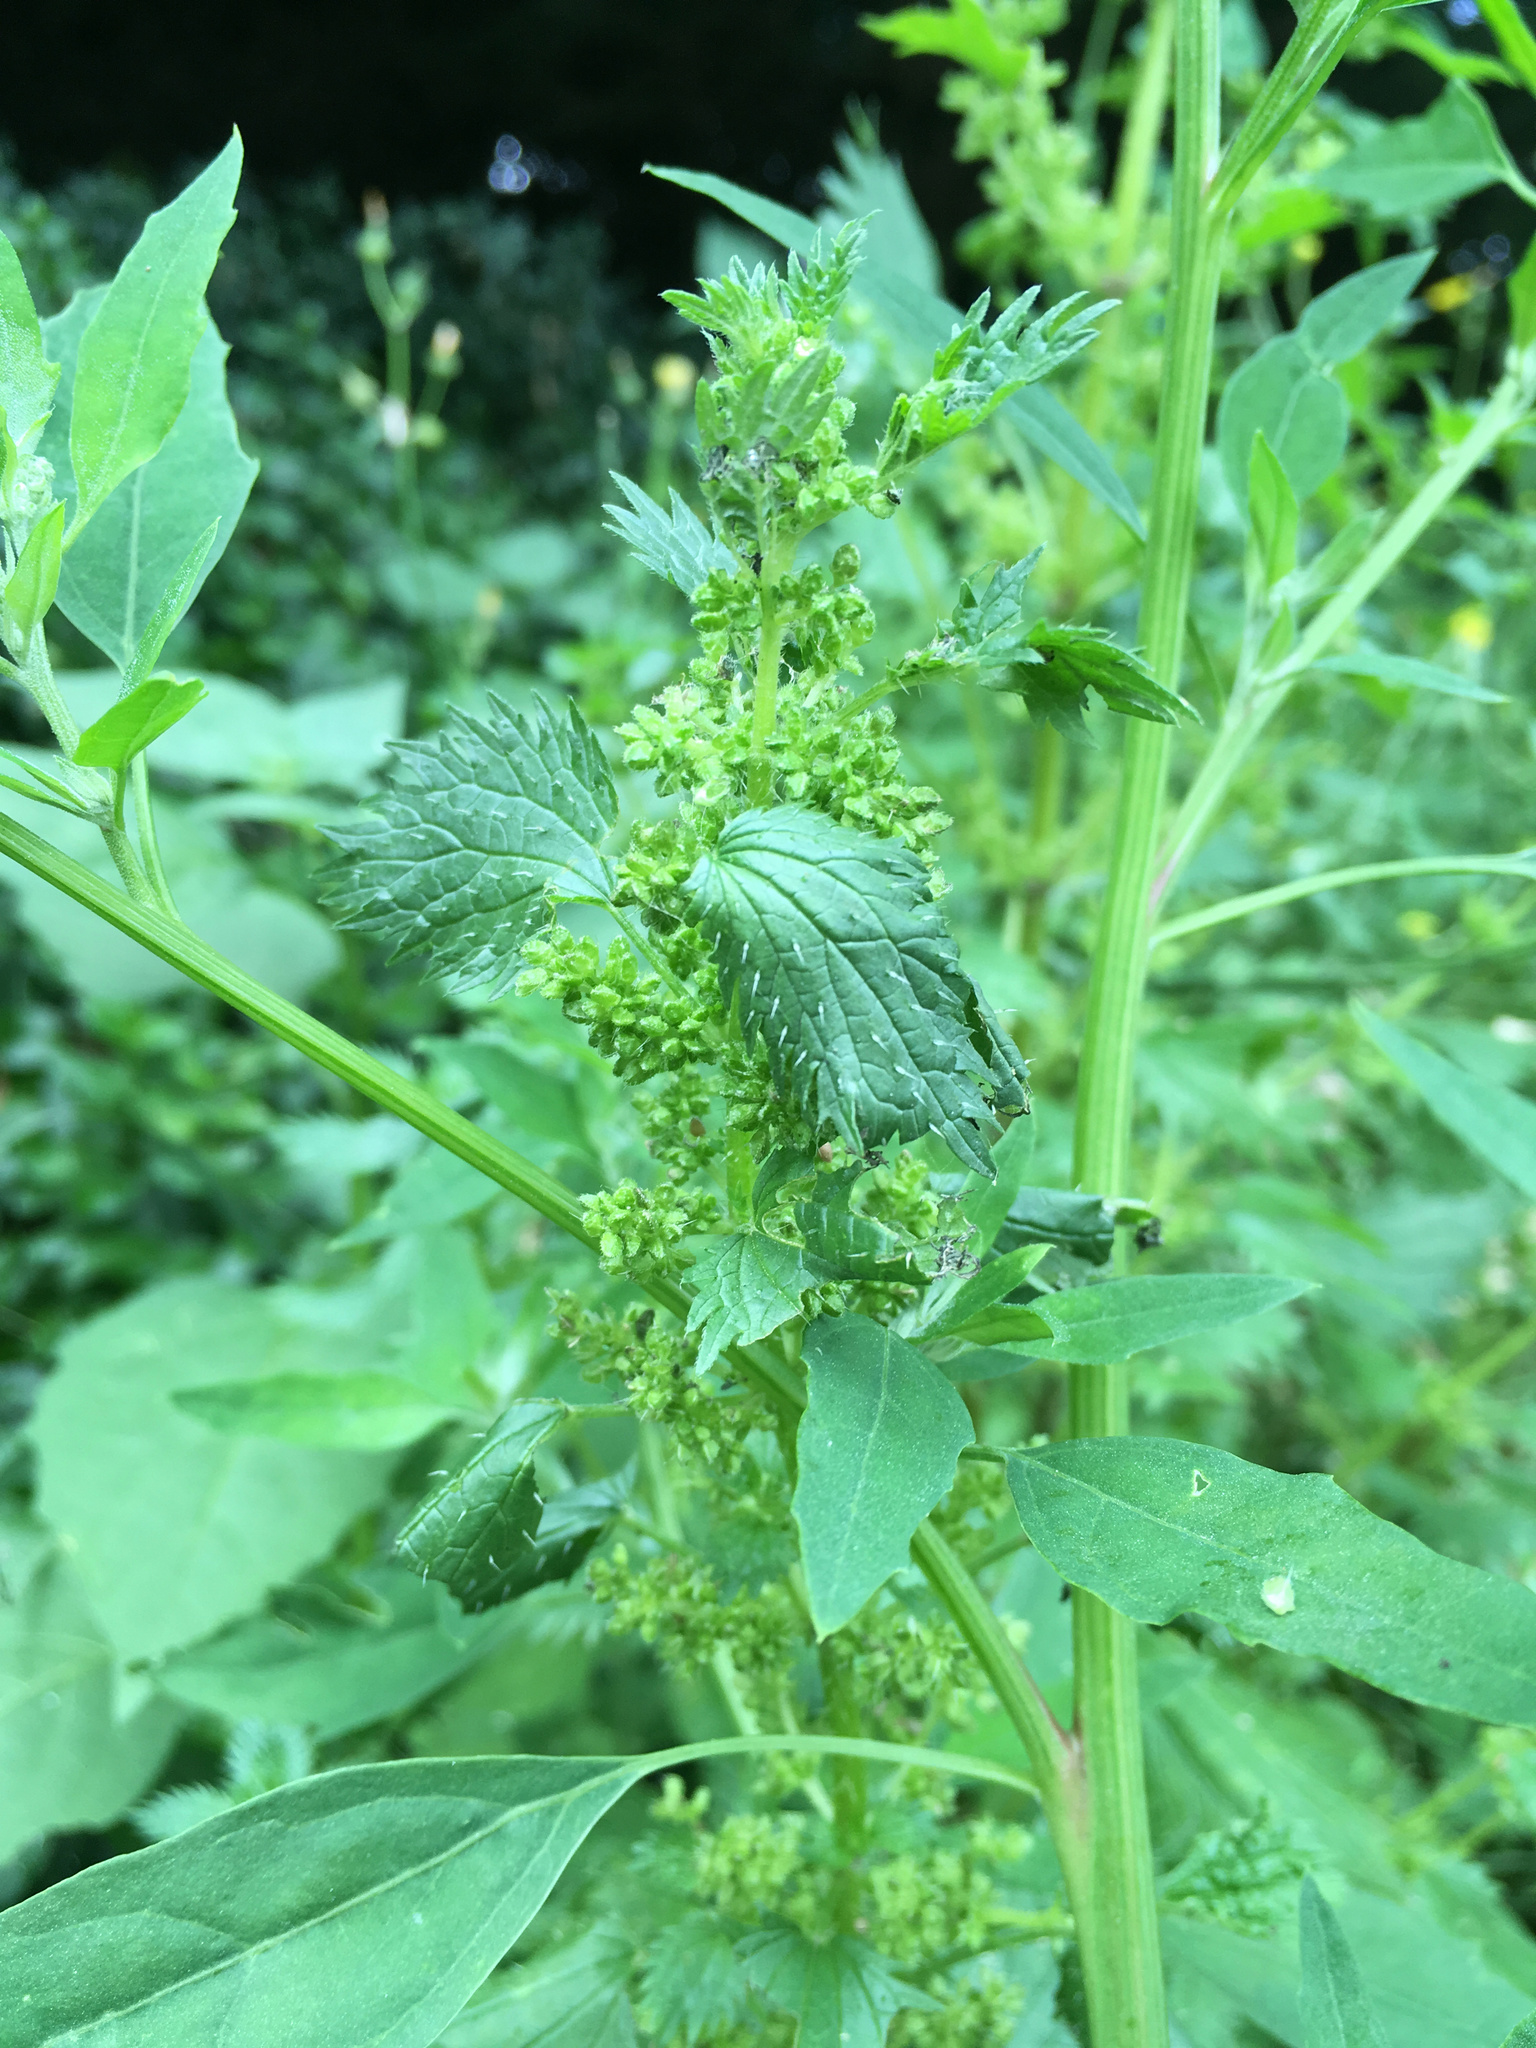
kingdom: Plantae
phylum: Tracheophyta
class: Magnoliopsida
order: Rosales
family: Urticaceae
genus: Urtica
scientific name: Urtica urens
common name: Dwarf nettle
